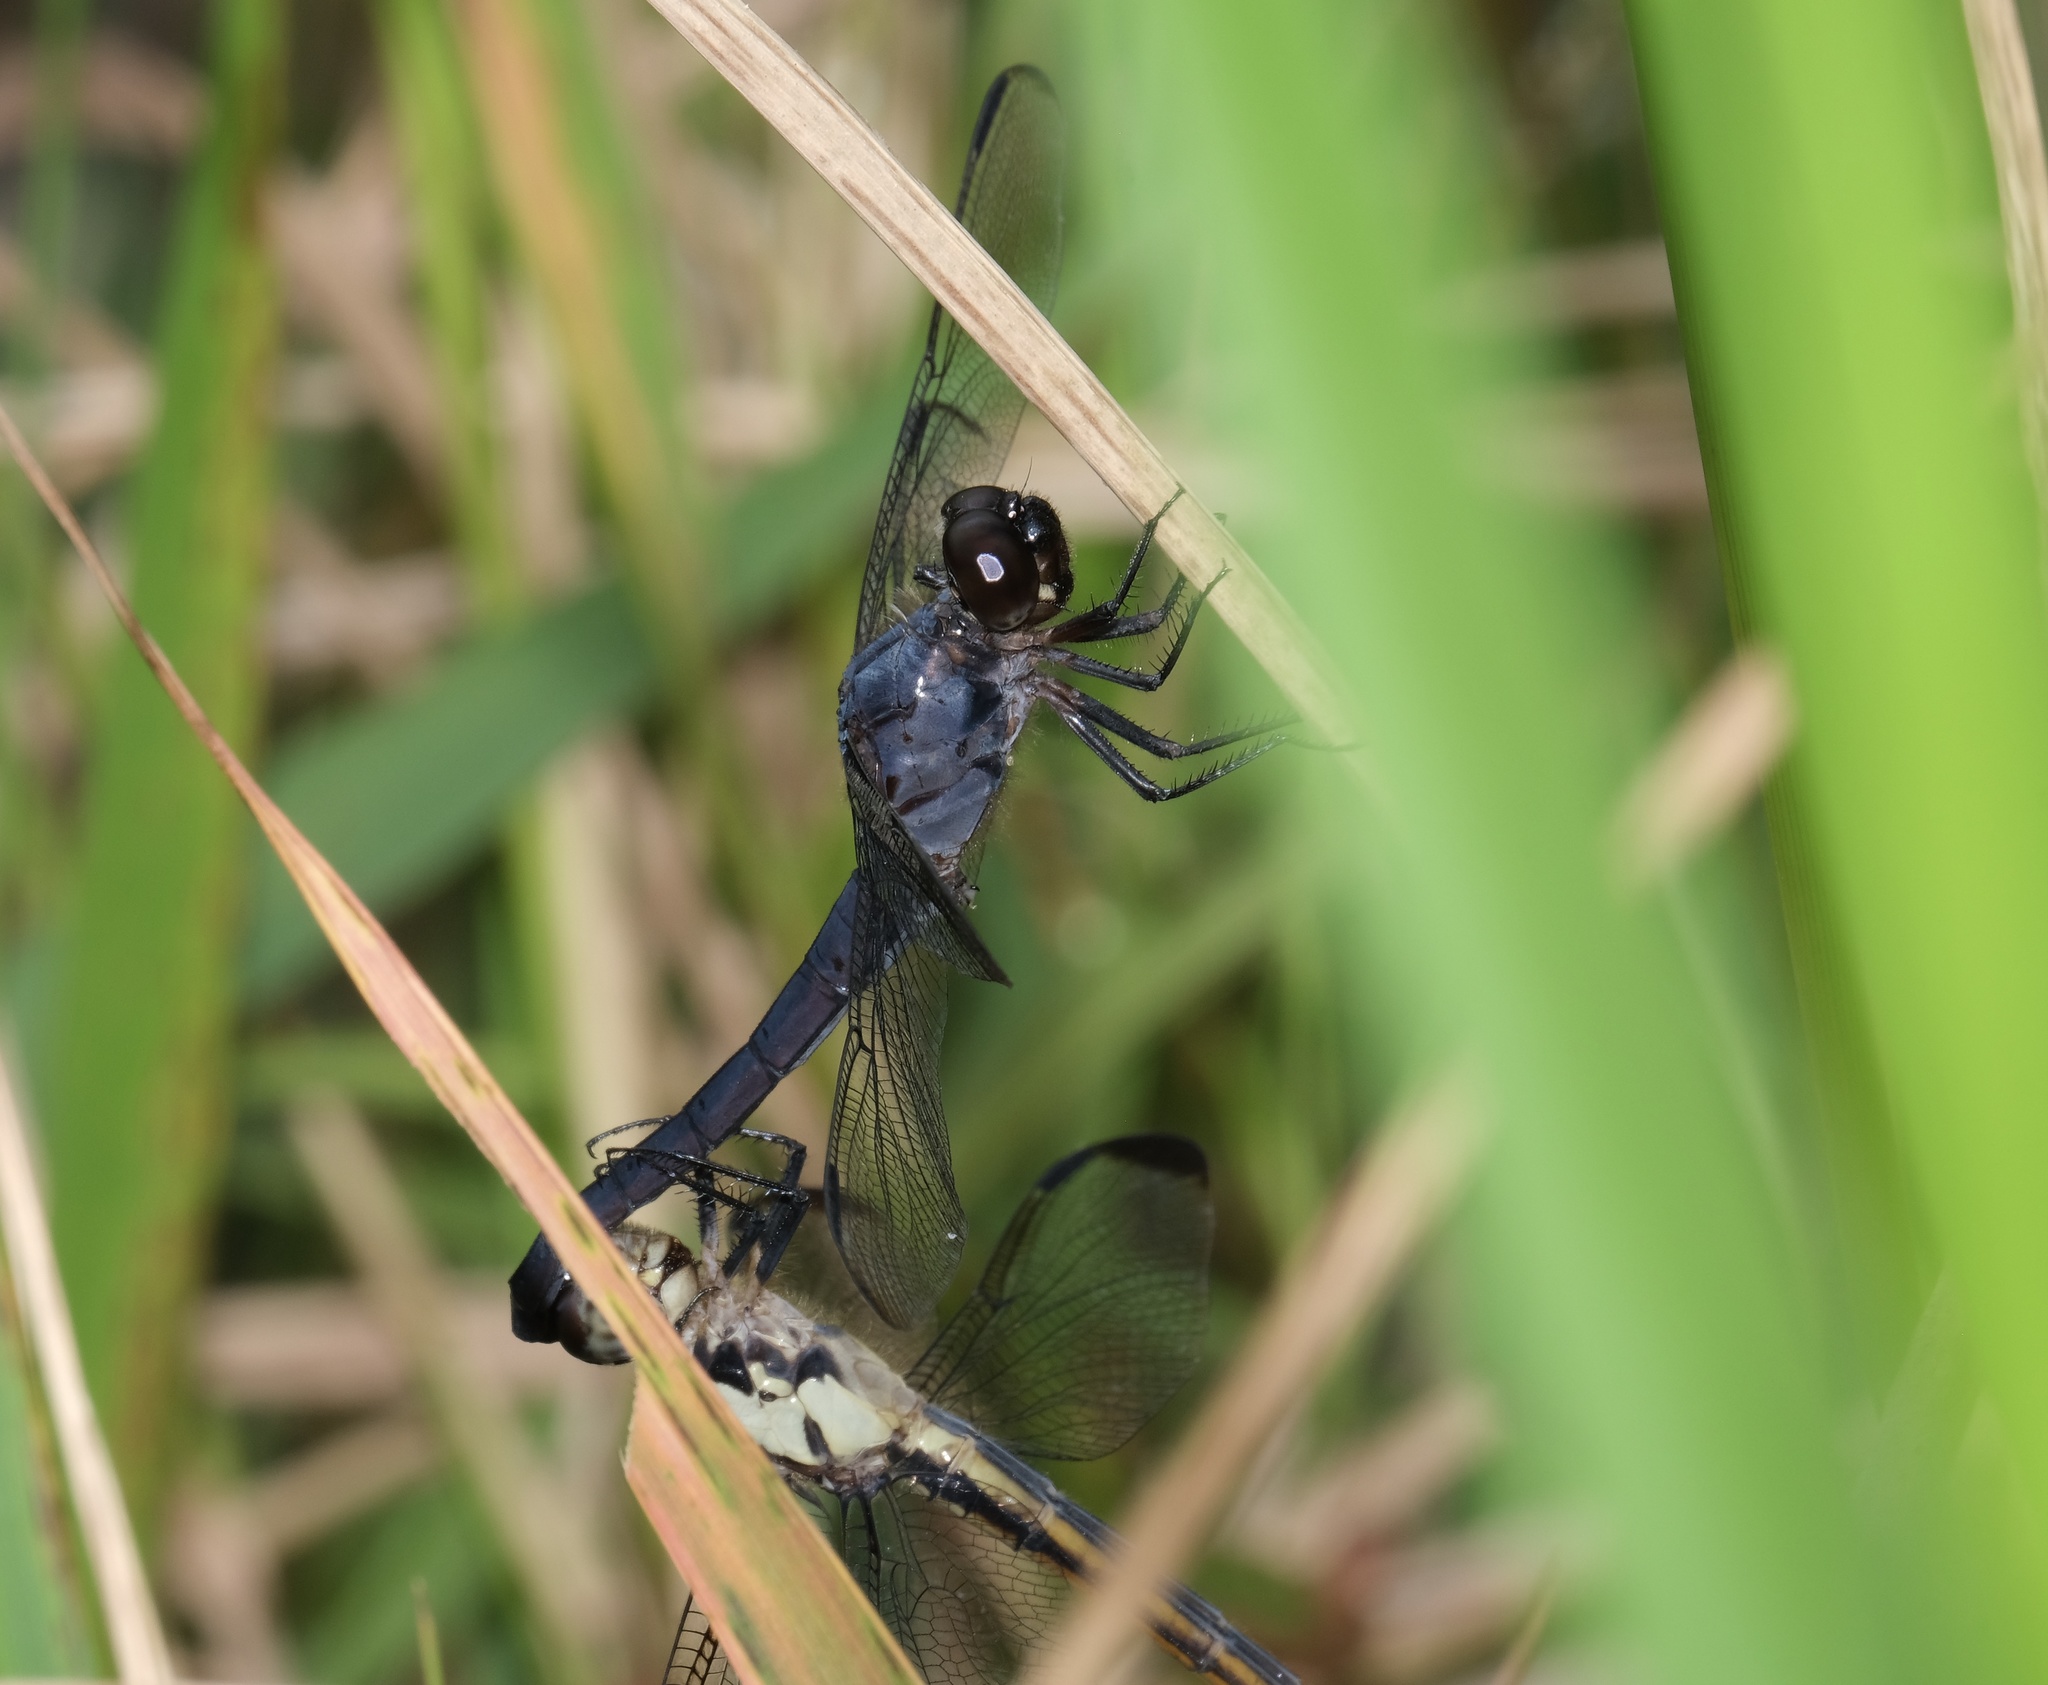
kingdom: Animalia
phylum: Arthropoda
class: Insecta
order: Odonata
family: Libellulidae
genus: Libellula
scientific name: Libellula incesta
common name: Slaty skimmer
